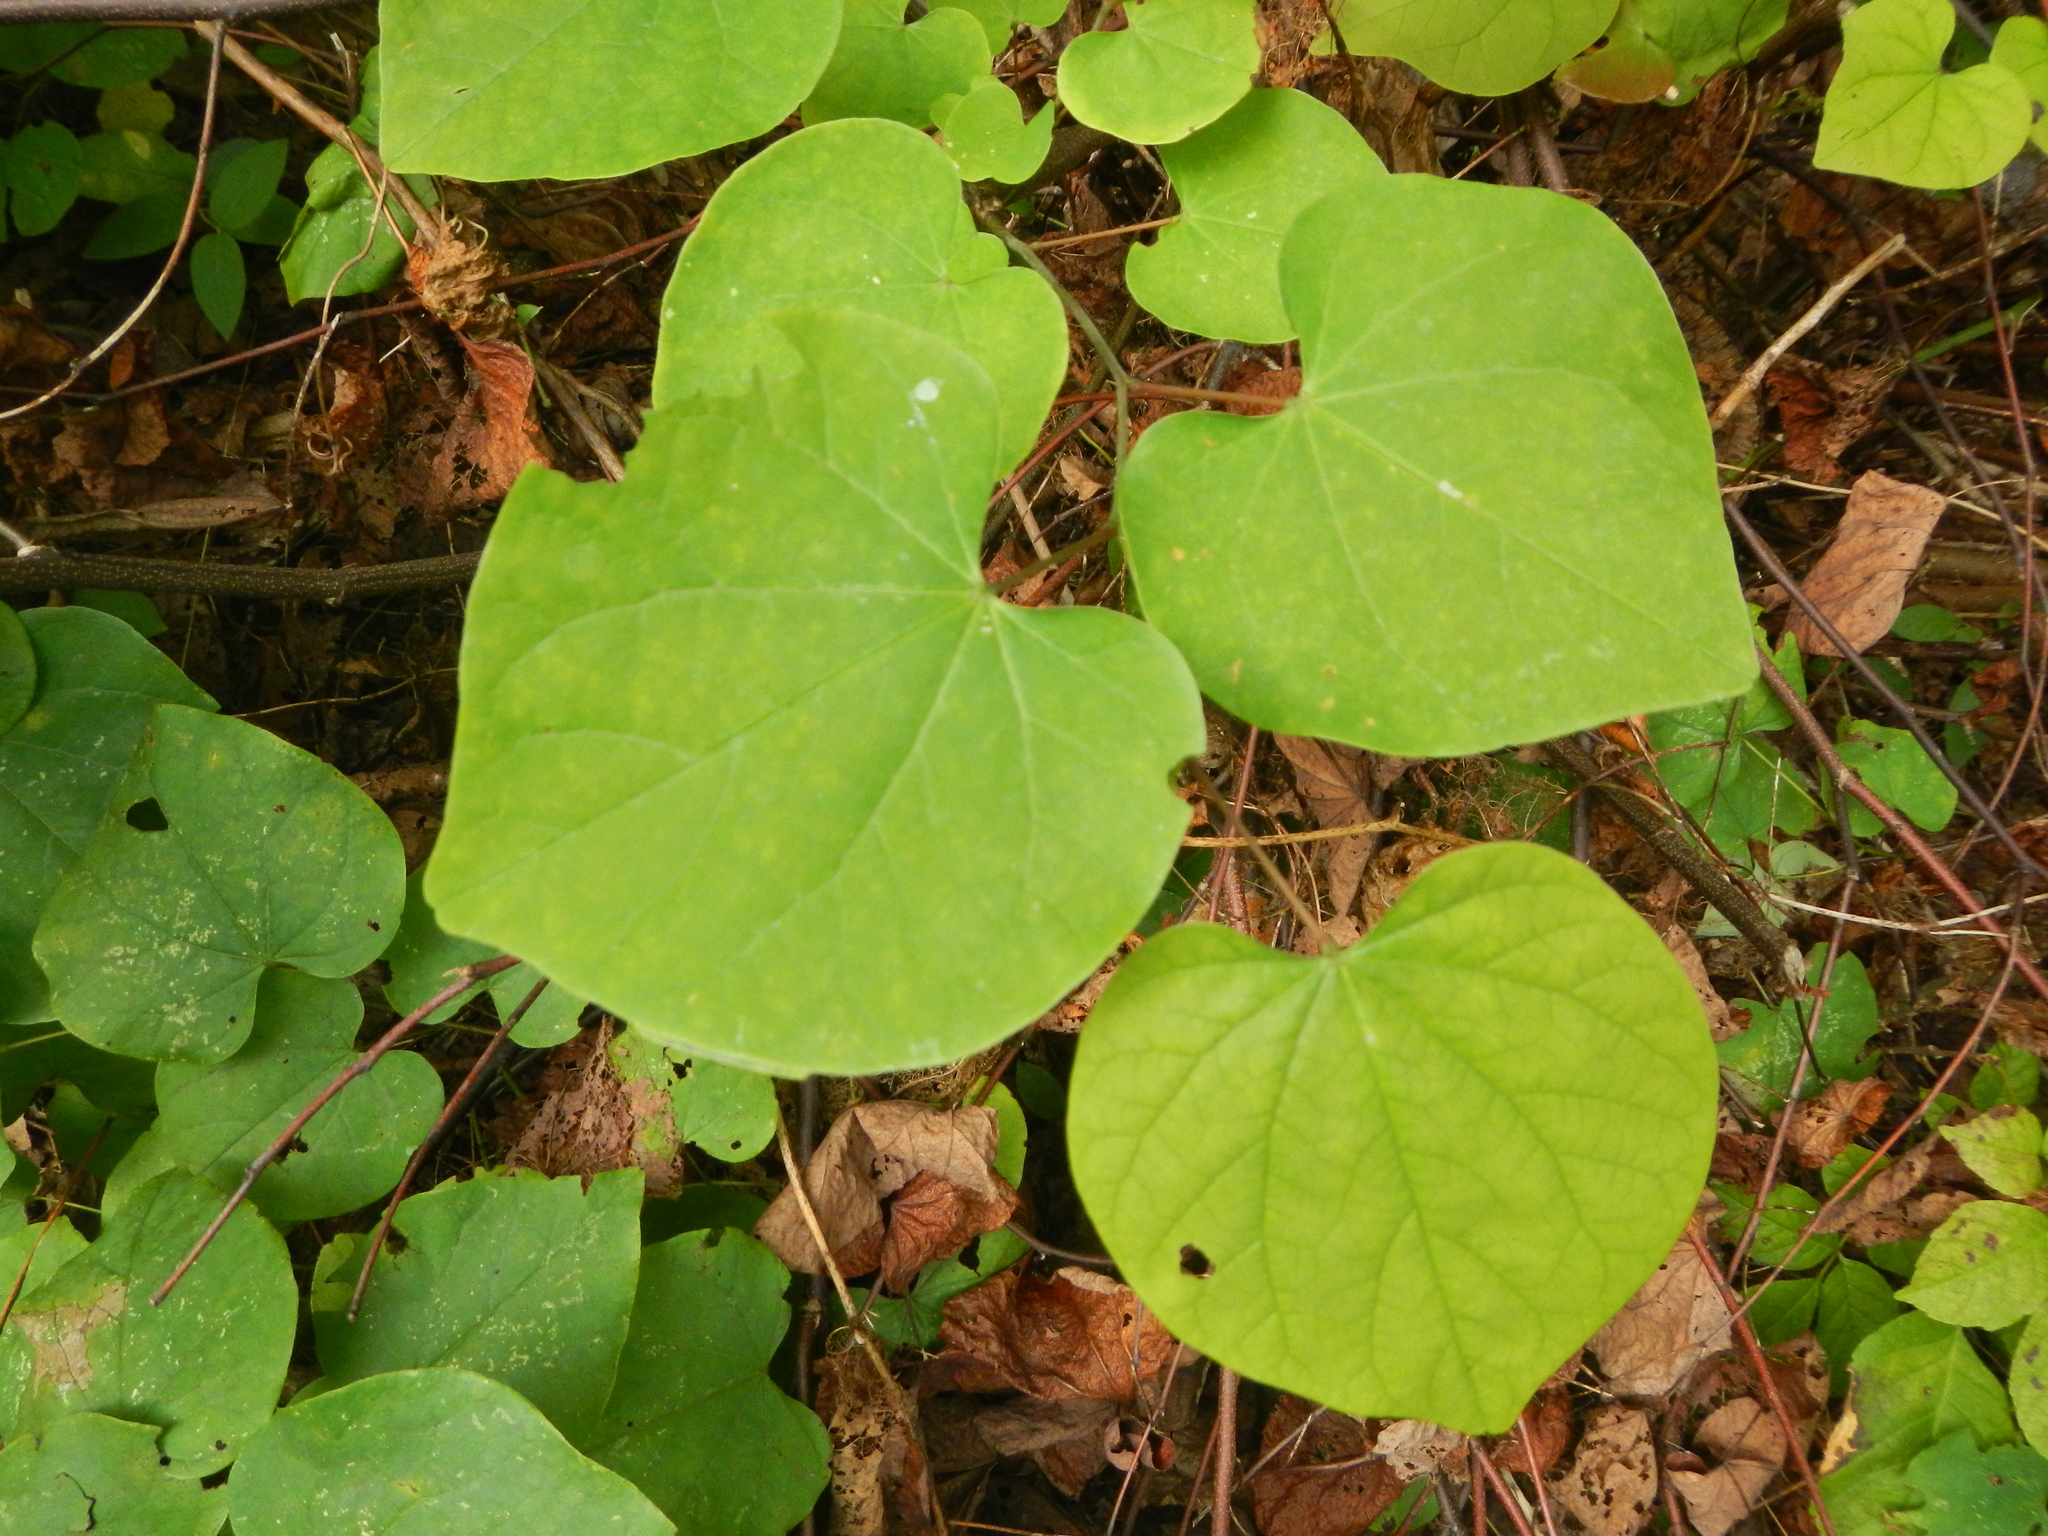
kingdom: Plantae
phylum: Tracheophyta
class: Magnoliopsida
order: Fabales
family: Fabaceae
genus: Cercis
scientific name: Cercis canadensis
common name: Eastern redbud
